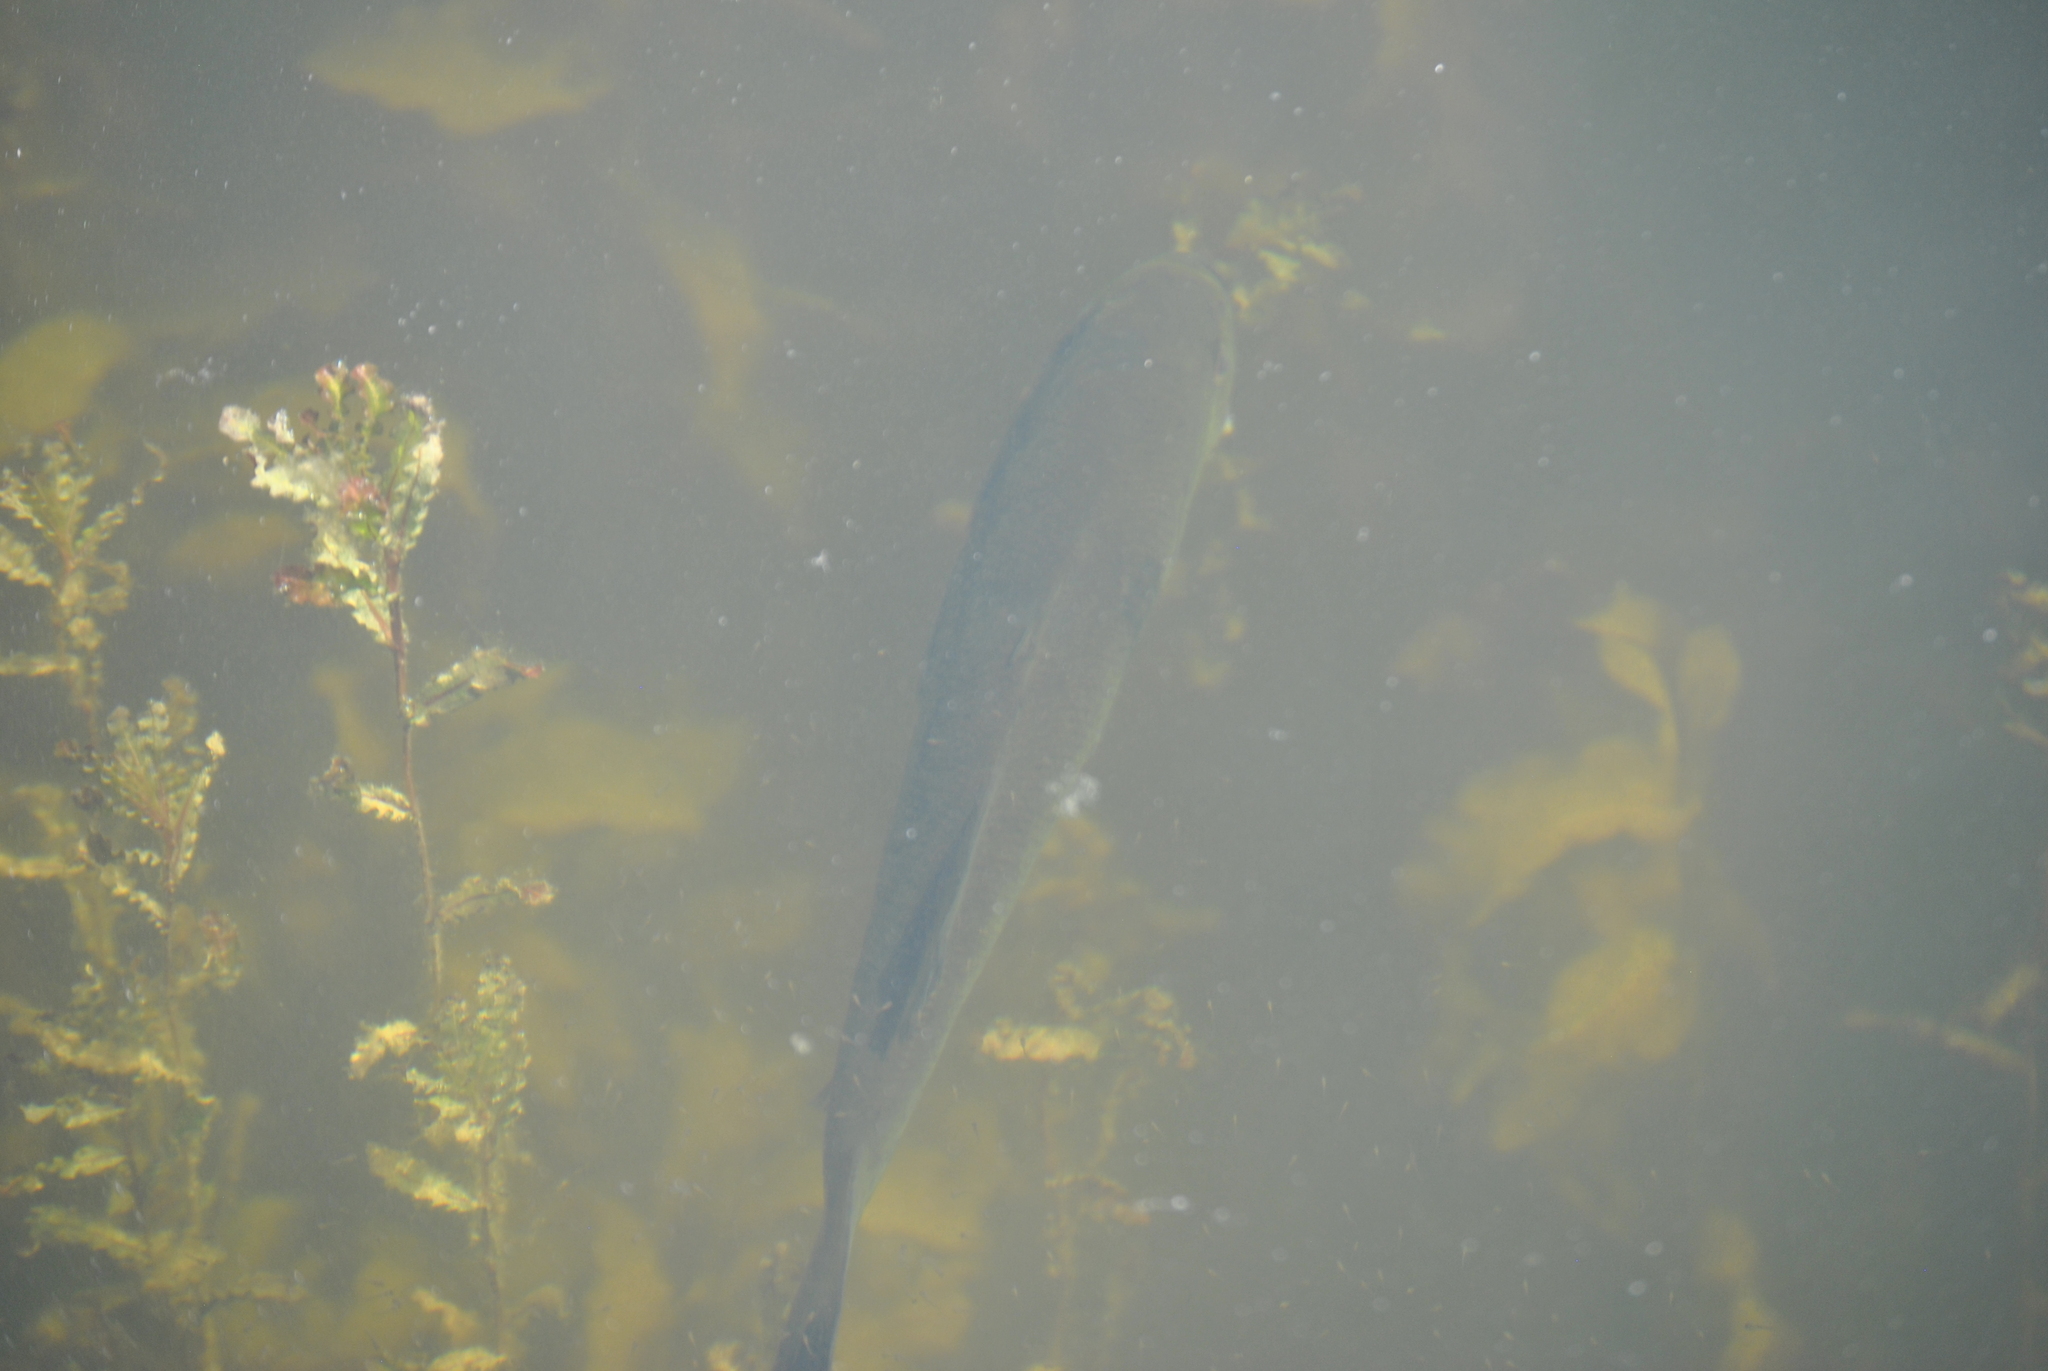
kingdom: Animalia
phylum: Chordata
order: Perciformes
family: Centrarchidae
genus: Micropterus
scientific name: Micropterus
